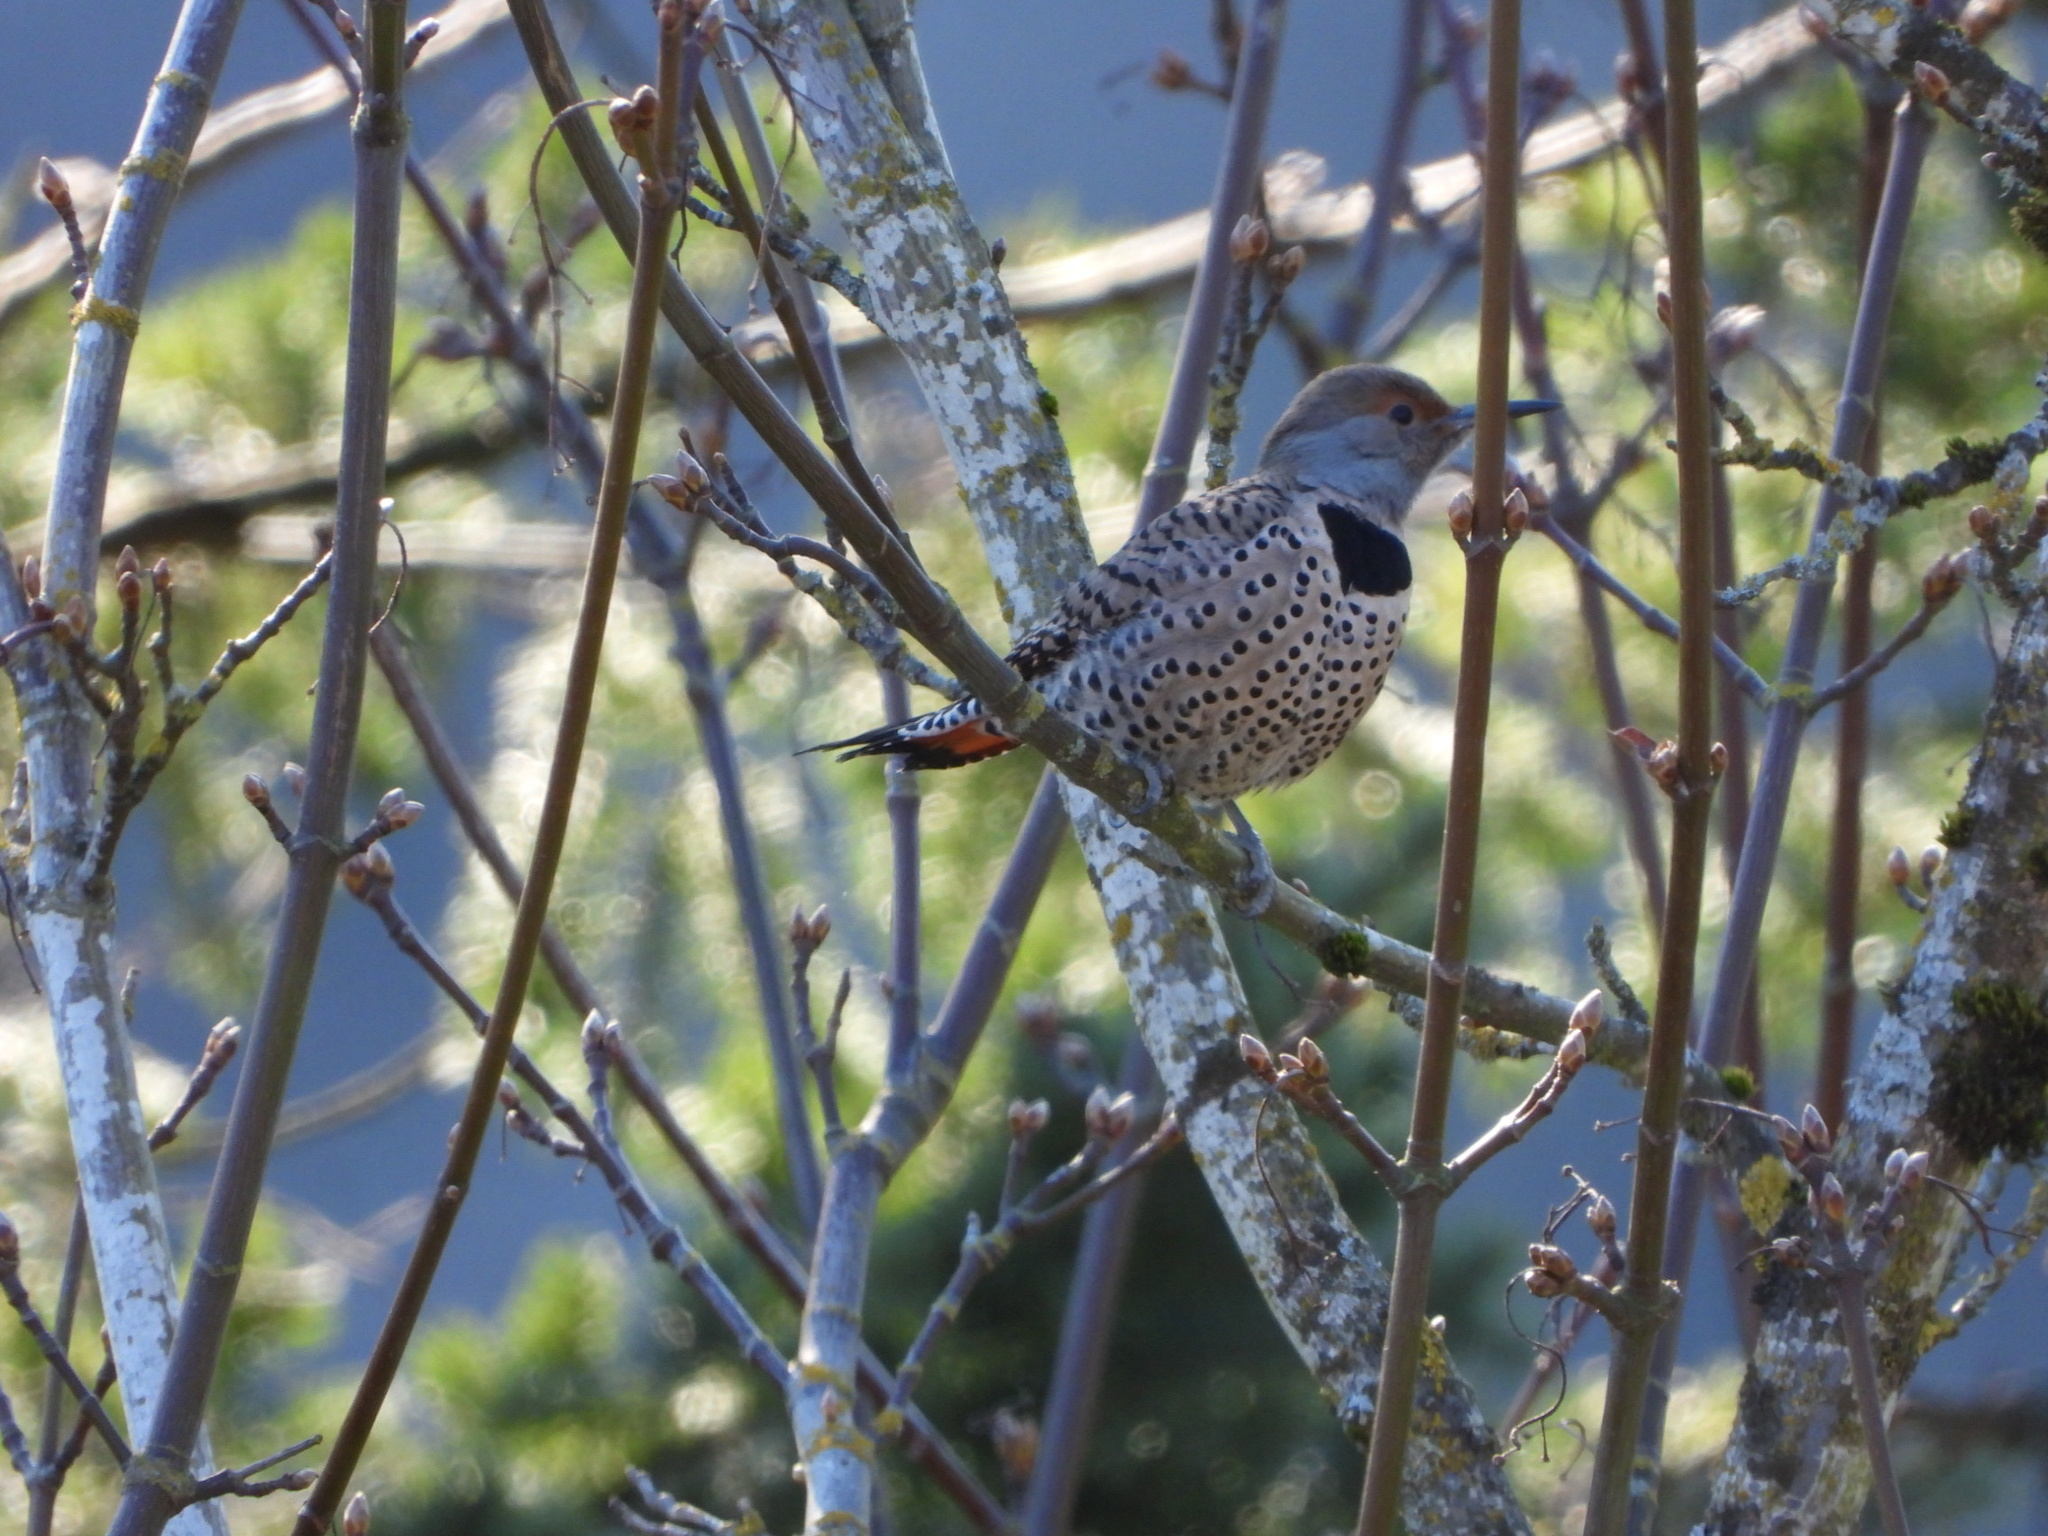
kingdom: Animalia
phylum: Chordata
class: Aves
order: Piciformes
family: Picidae
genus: Colaptes
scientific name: Colaptes auratus
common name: Northern flicker
